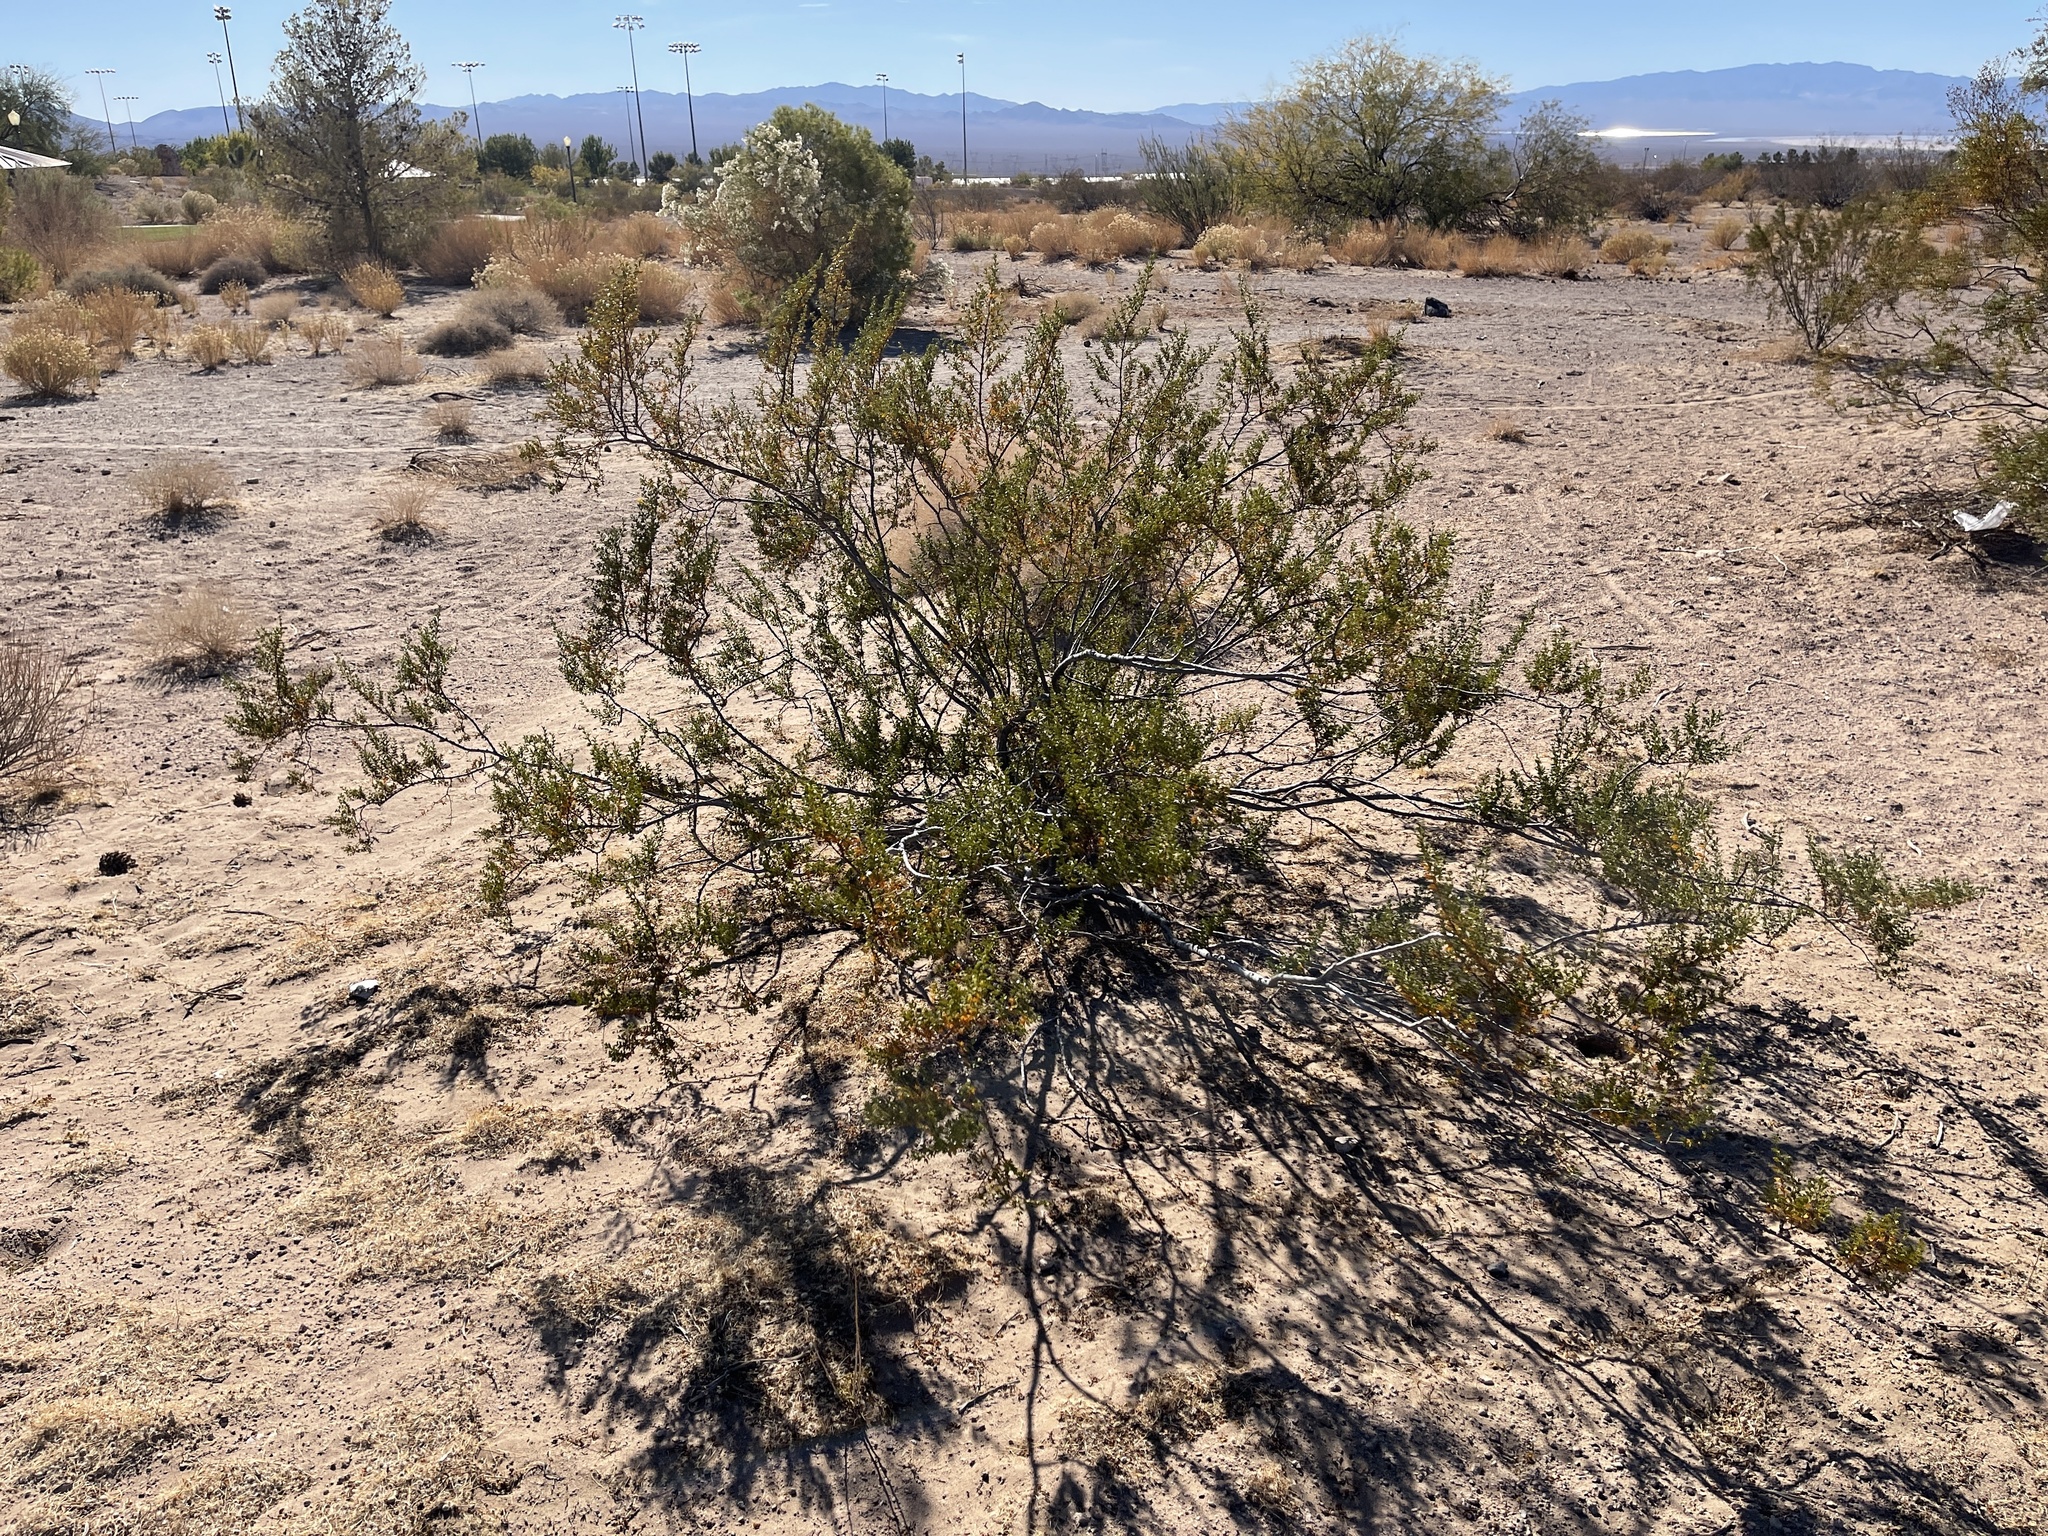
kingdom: Plantae
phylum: Tracheophyta
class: Magnoliopsida
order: Zygophyllales
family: Zygophyllaceae
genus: Larrea
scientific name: Larrea tridentata
